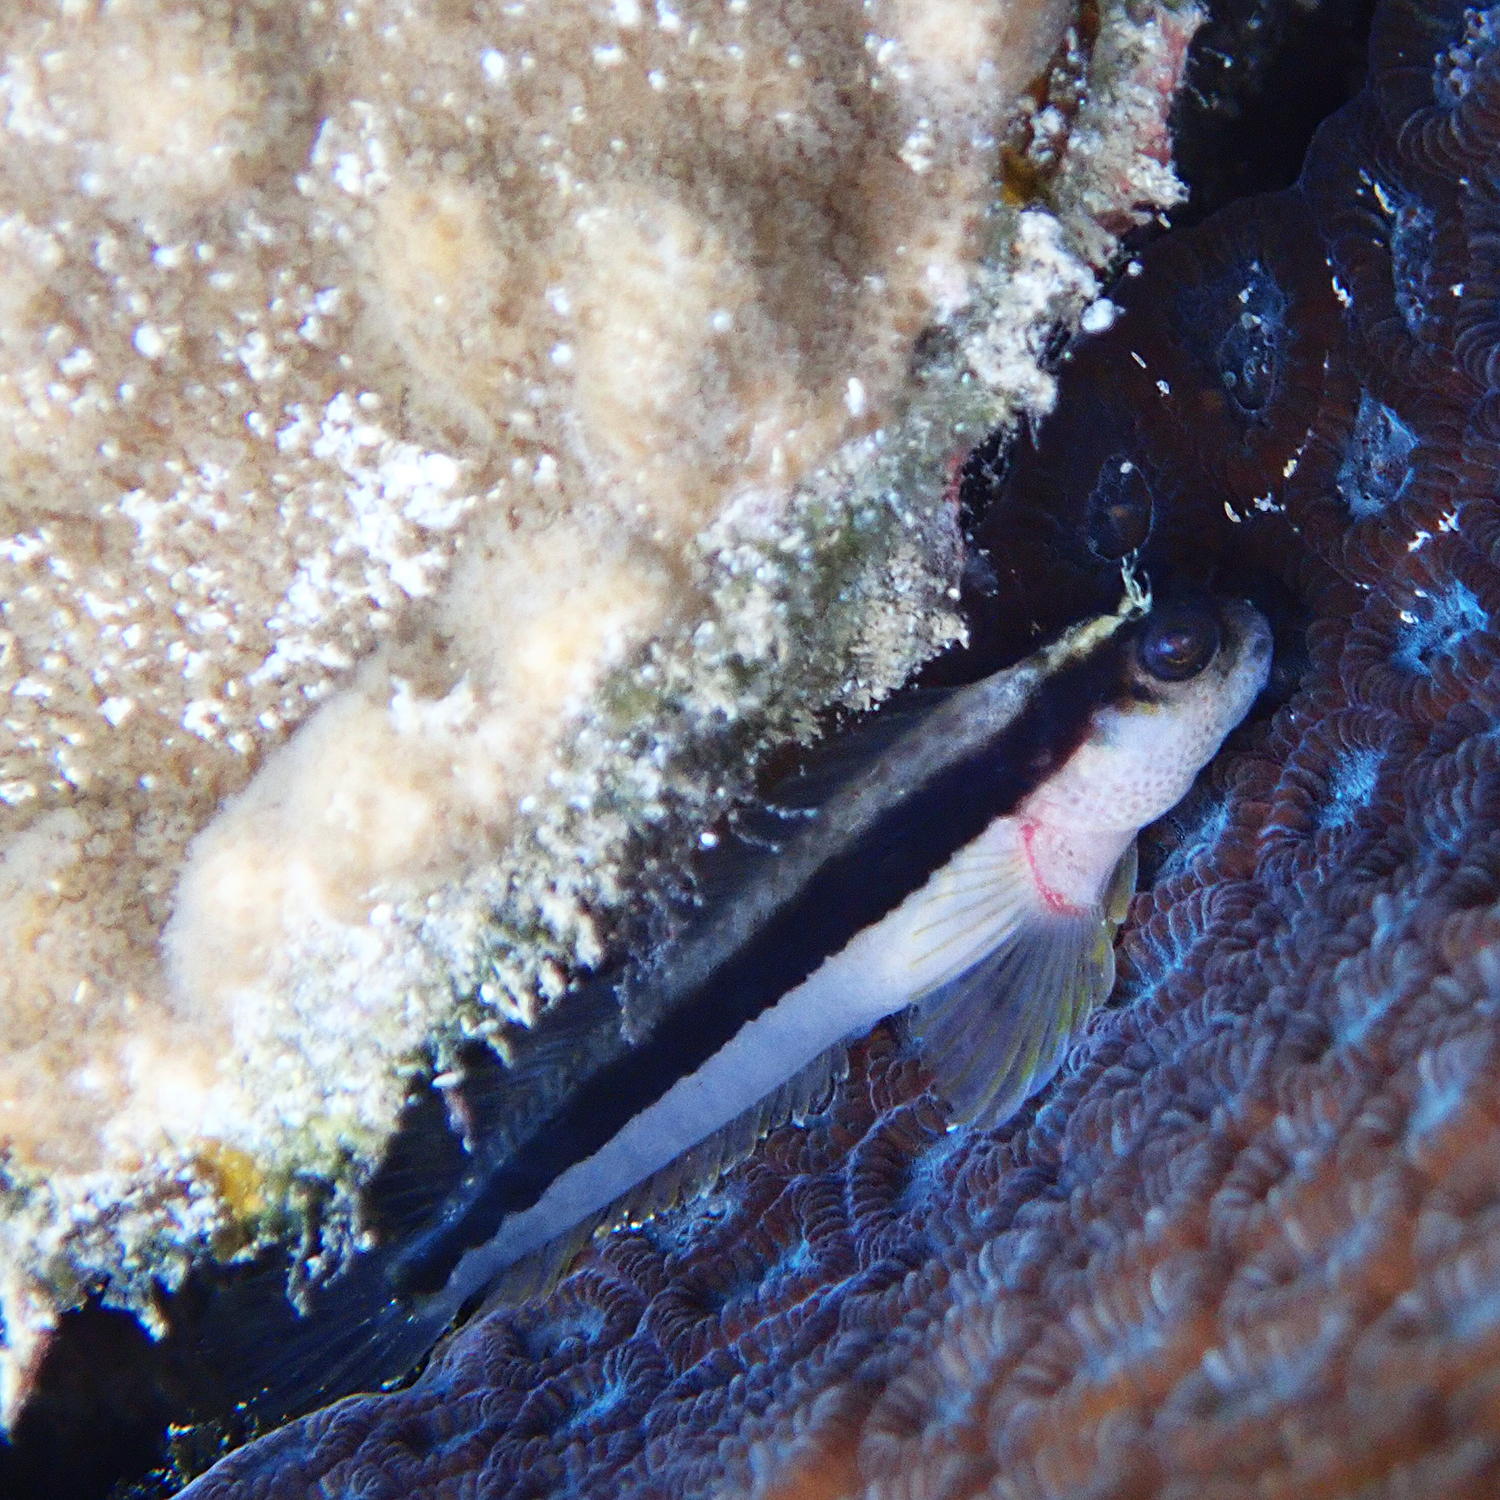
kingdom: Animalia
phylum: Chordata
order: Perciformes
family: Blenniidae
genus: Parablennius
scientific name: Parablennius serratolineatus
